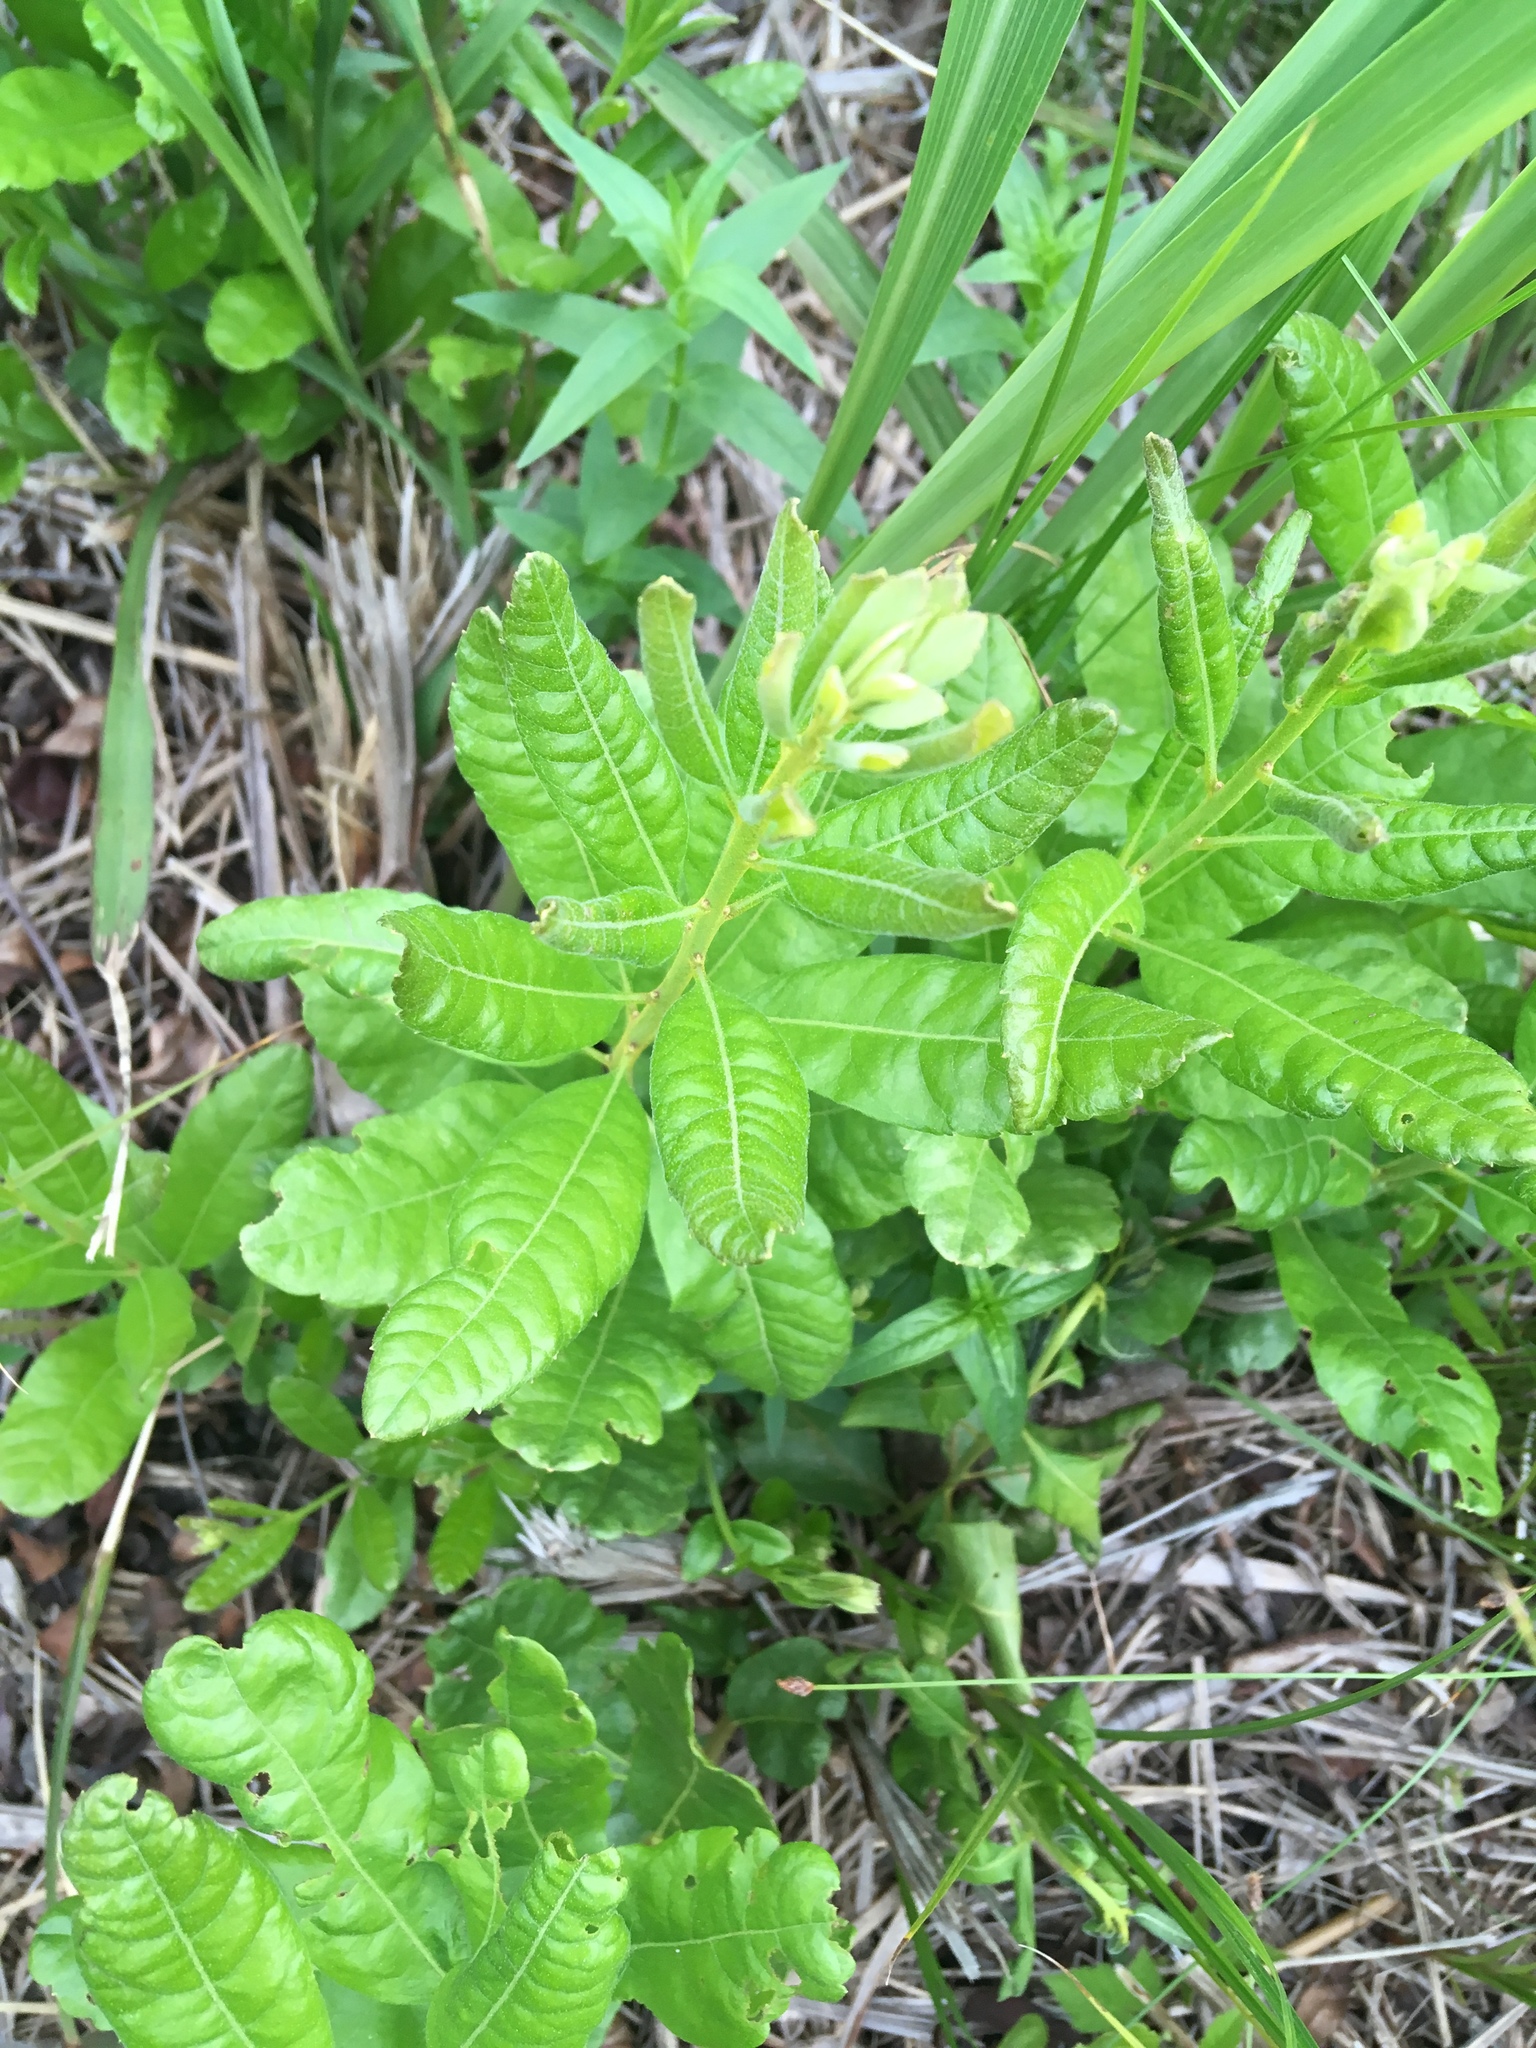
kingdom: Plantae
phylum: Tracheophyta
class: Magnoliopsida
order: Fagales
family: Myricaceae
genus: Morella
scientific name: Morella pensylvanica
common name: Northern bayberry
